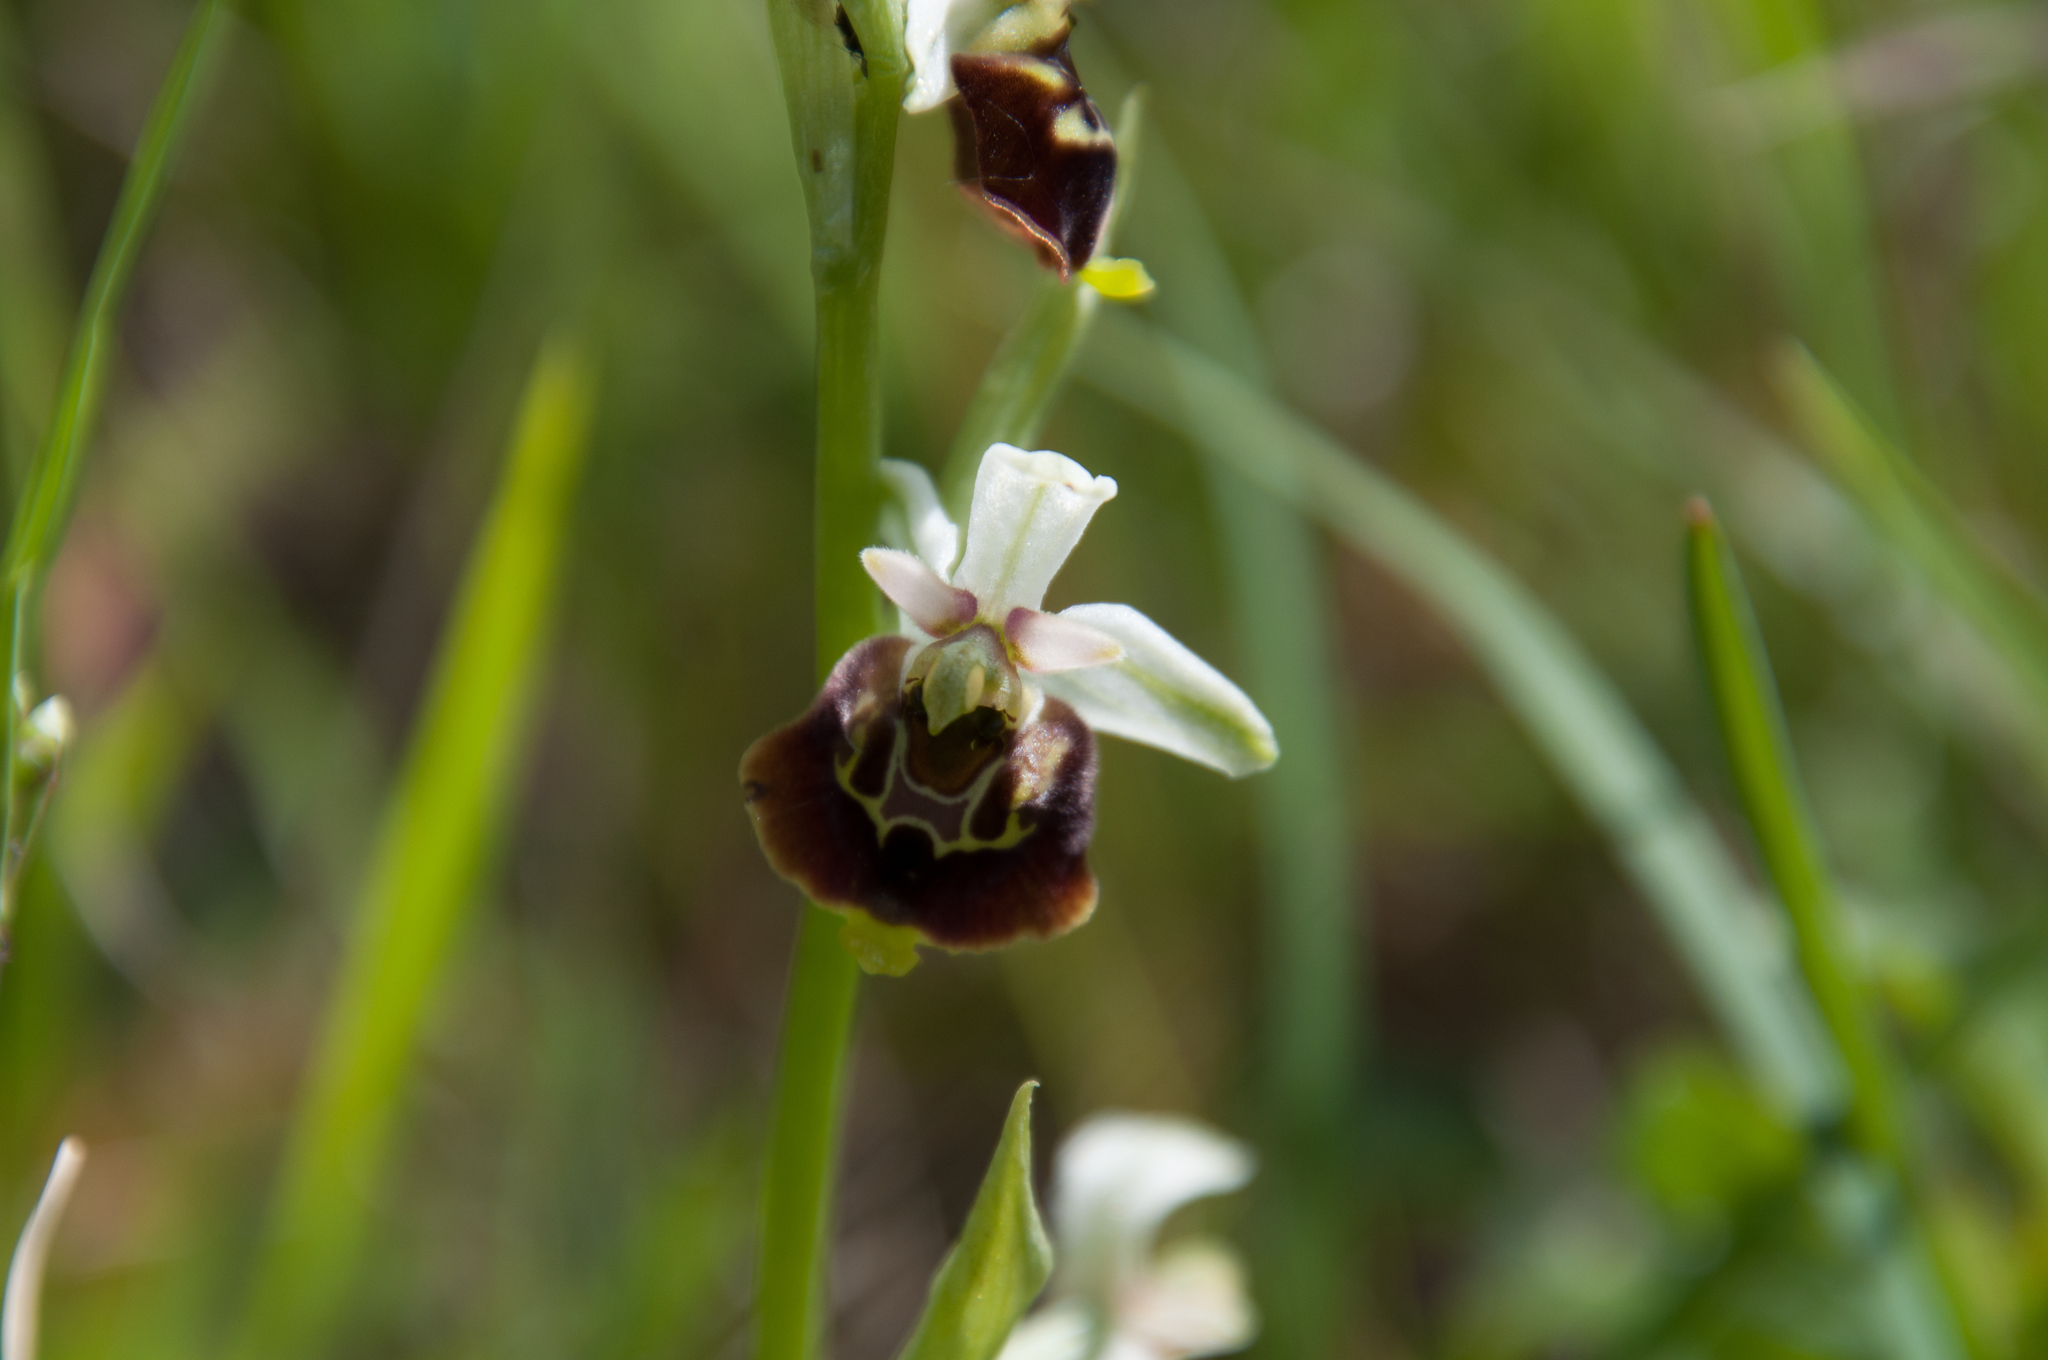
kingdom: Plantae
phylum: Tracheophyta
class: Liliopsida
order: Asparagales
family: Orchidaceae
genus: Ophrys
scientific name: Ophrys holosericea
